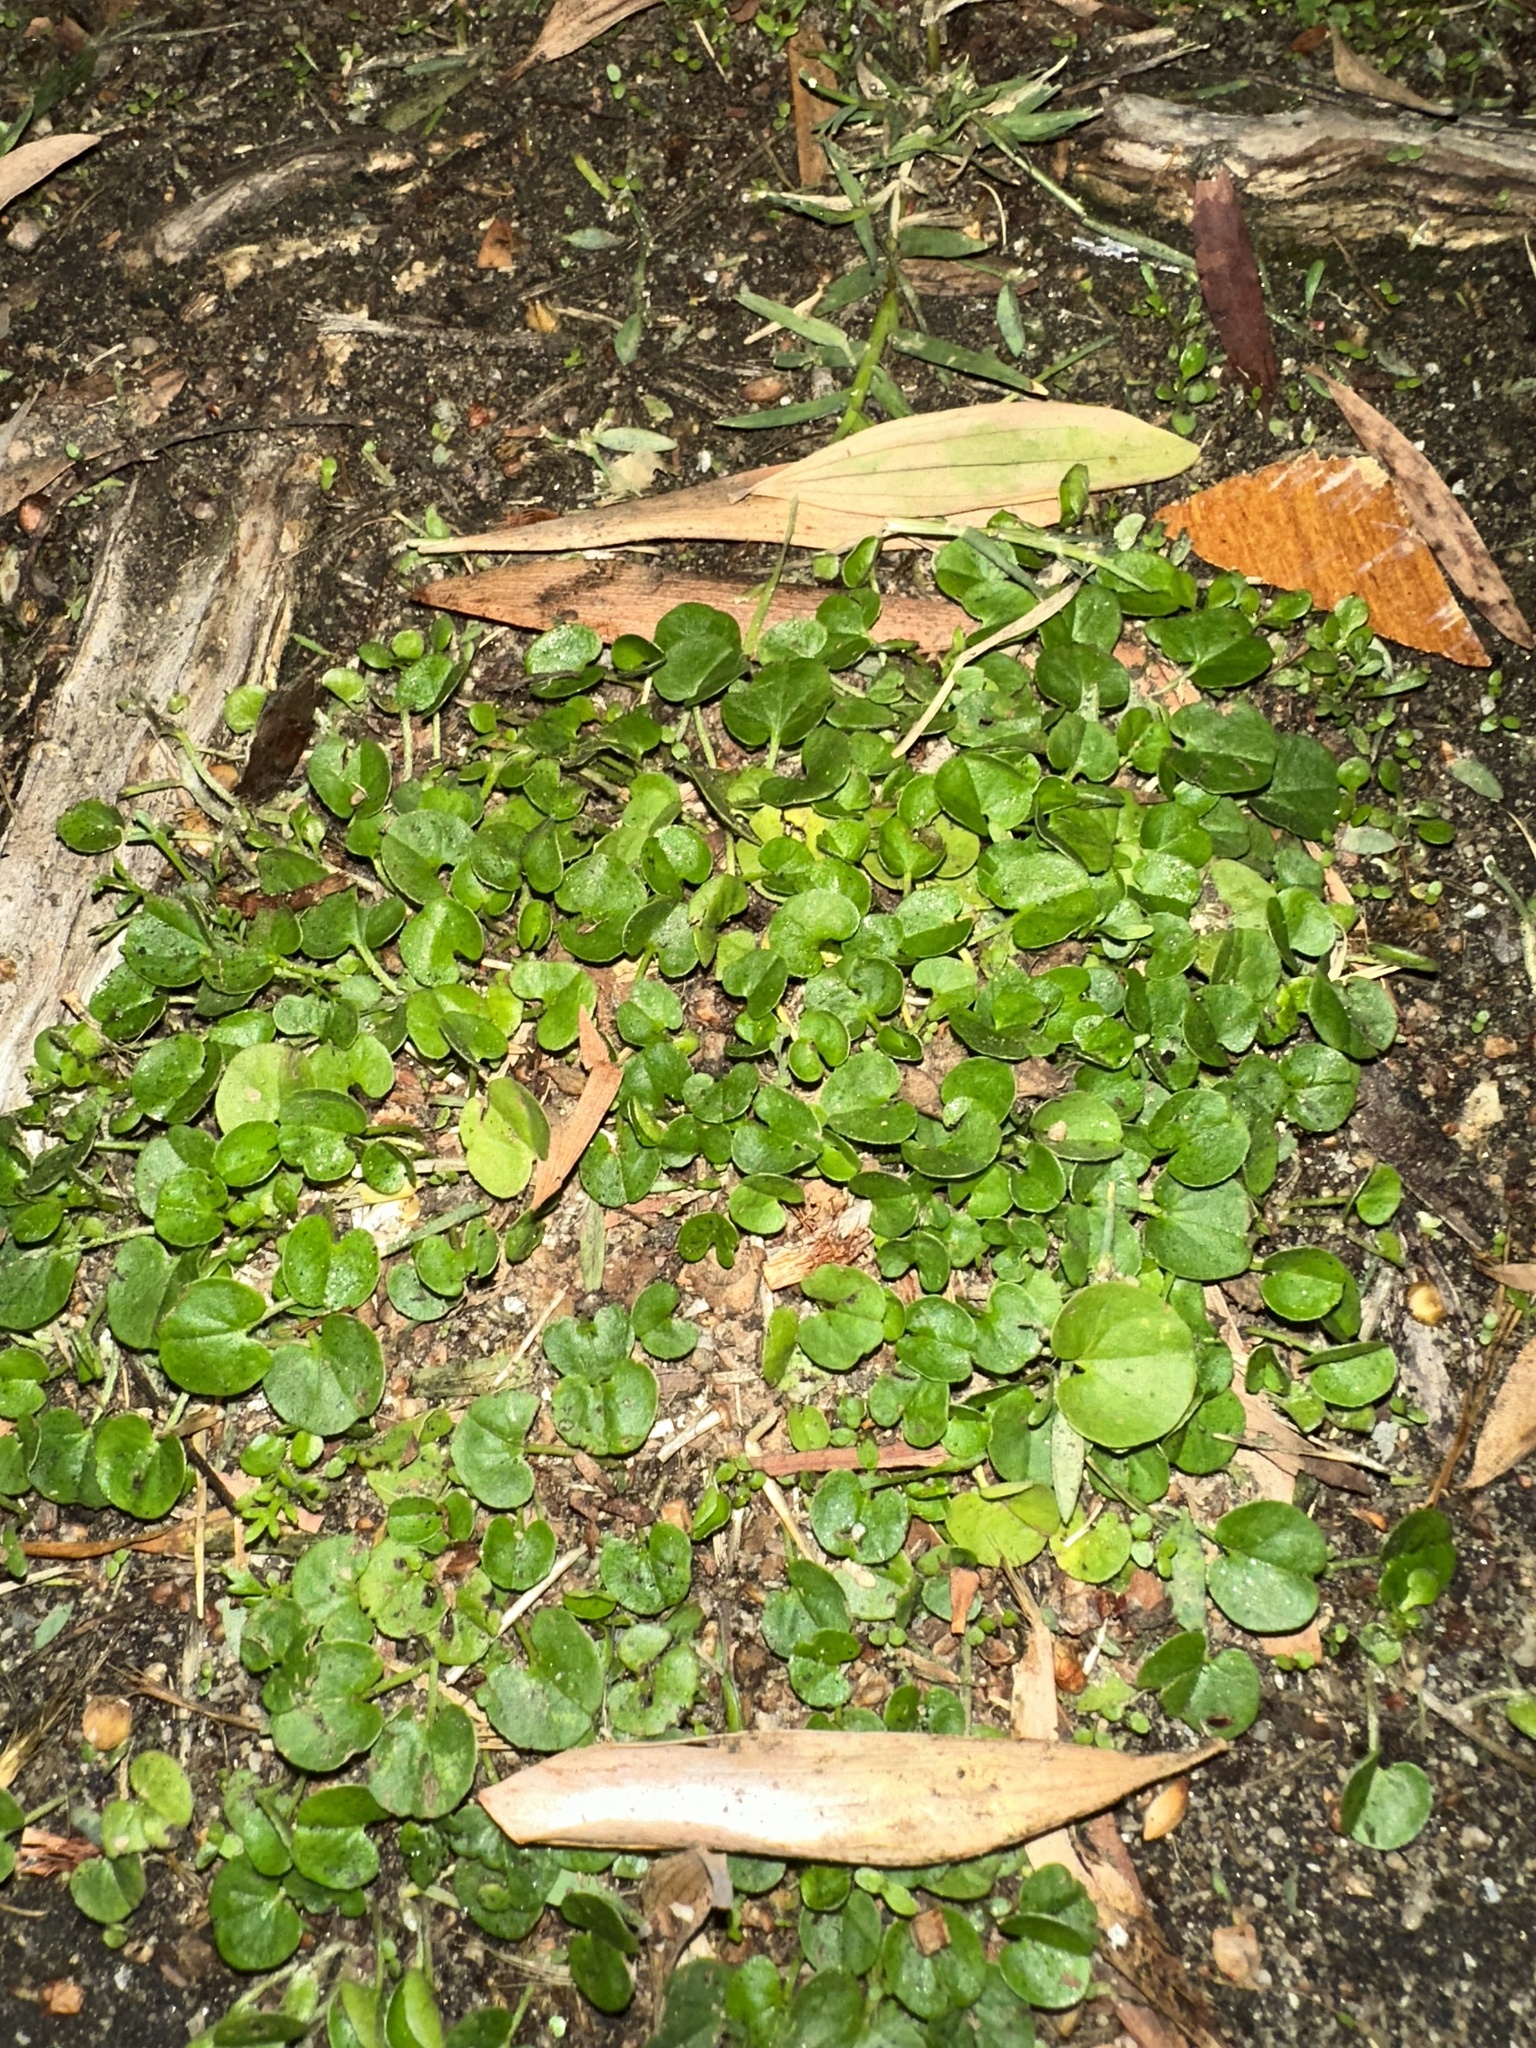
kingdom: Plantae
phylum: Tracheophyta
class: Magnoliopsida
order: Solanales
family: Convolvulaceae
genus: Dichondra
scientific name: Dichondra micrantha
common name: Kidneyweed
